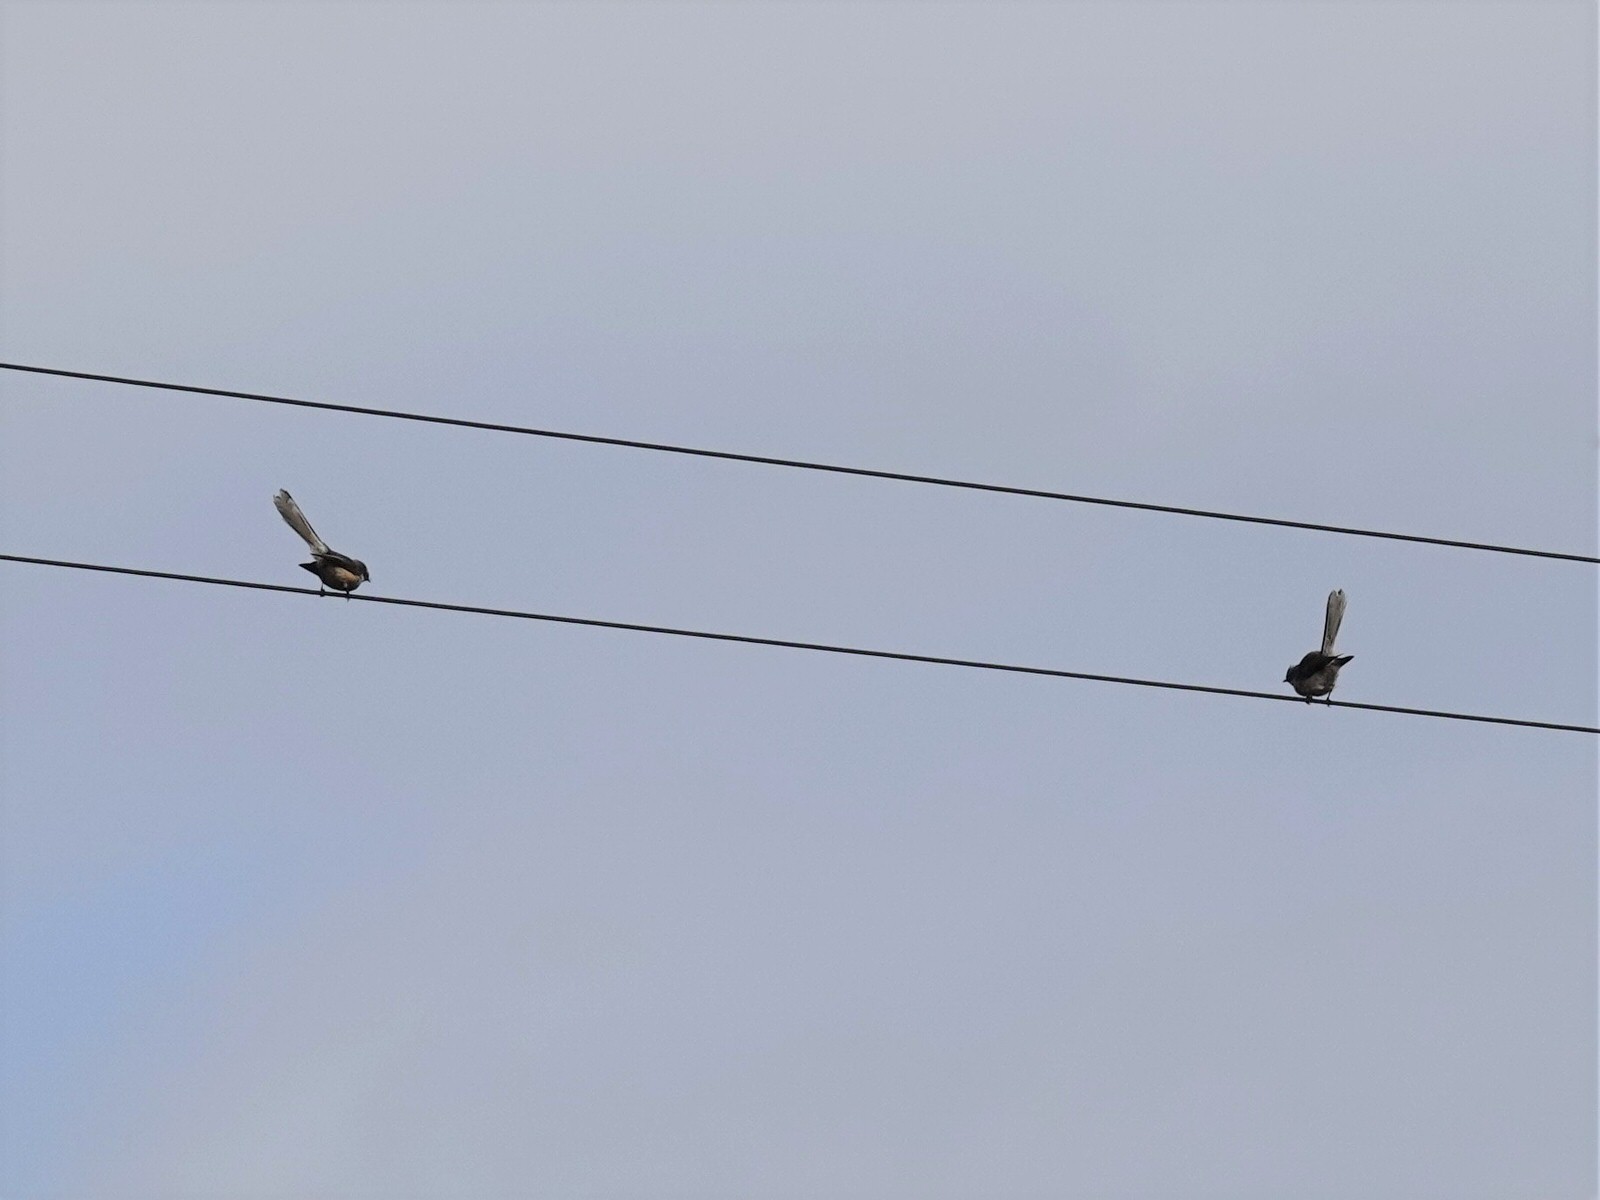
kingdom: Animalia
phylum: Chordata
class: Aves
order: Passeriformes
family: Rhipiduridae
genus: Rhipidura
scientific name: Rhipidura fuliginosa
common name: New zealand fantail
